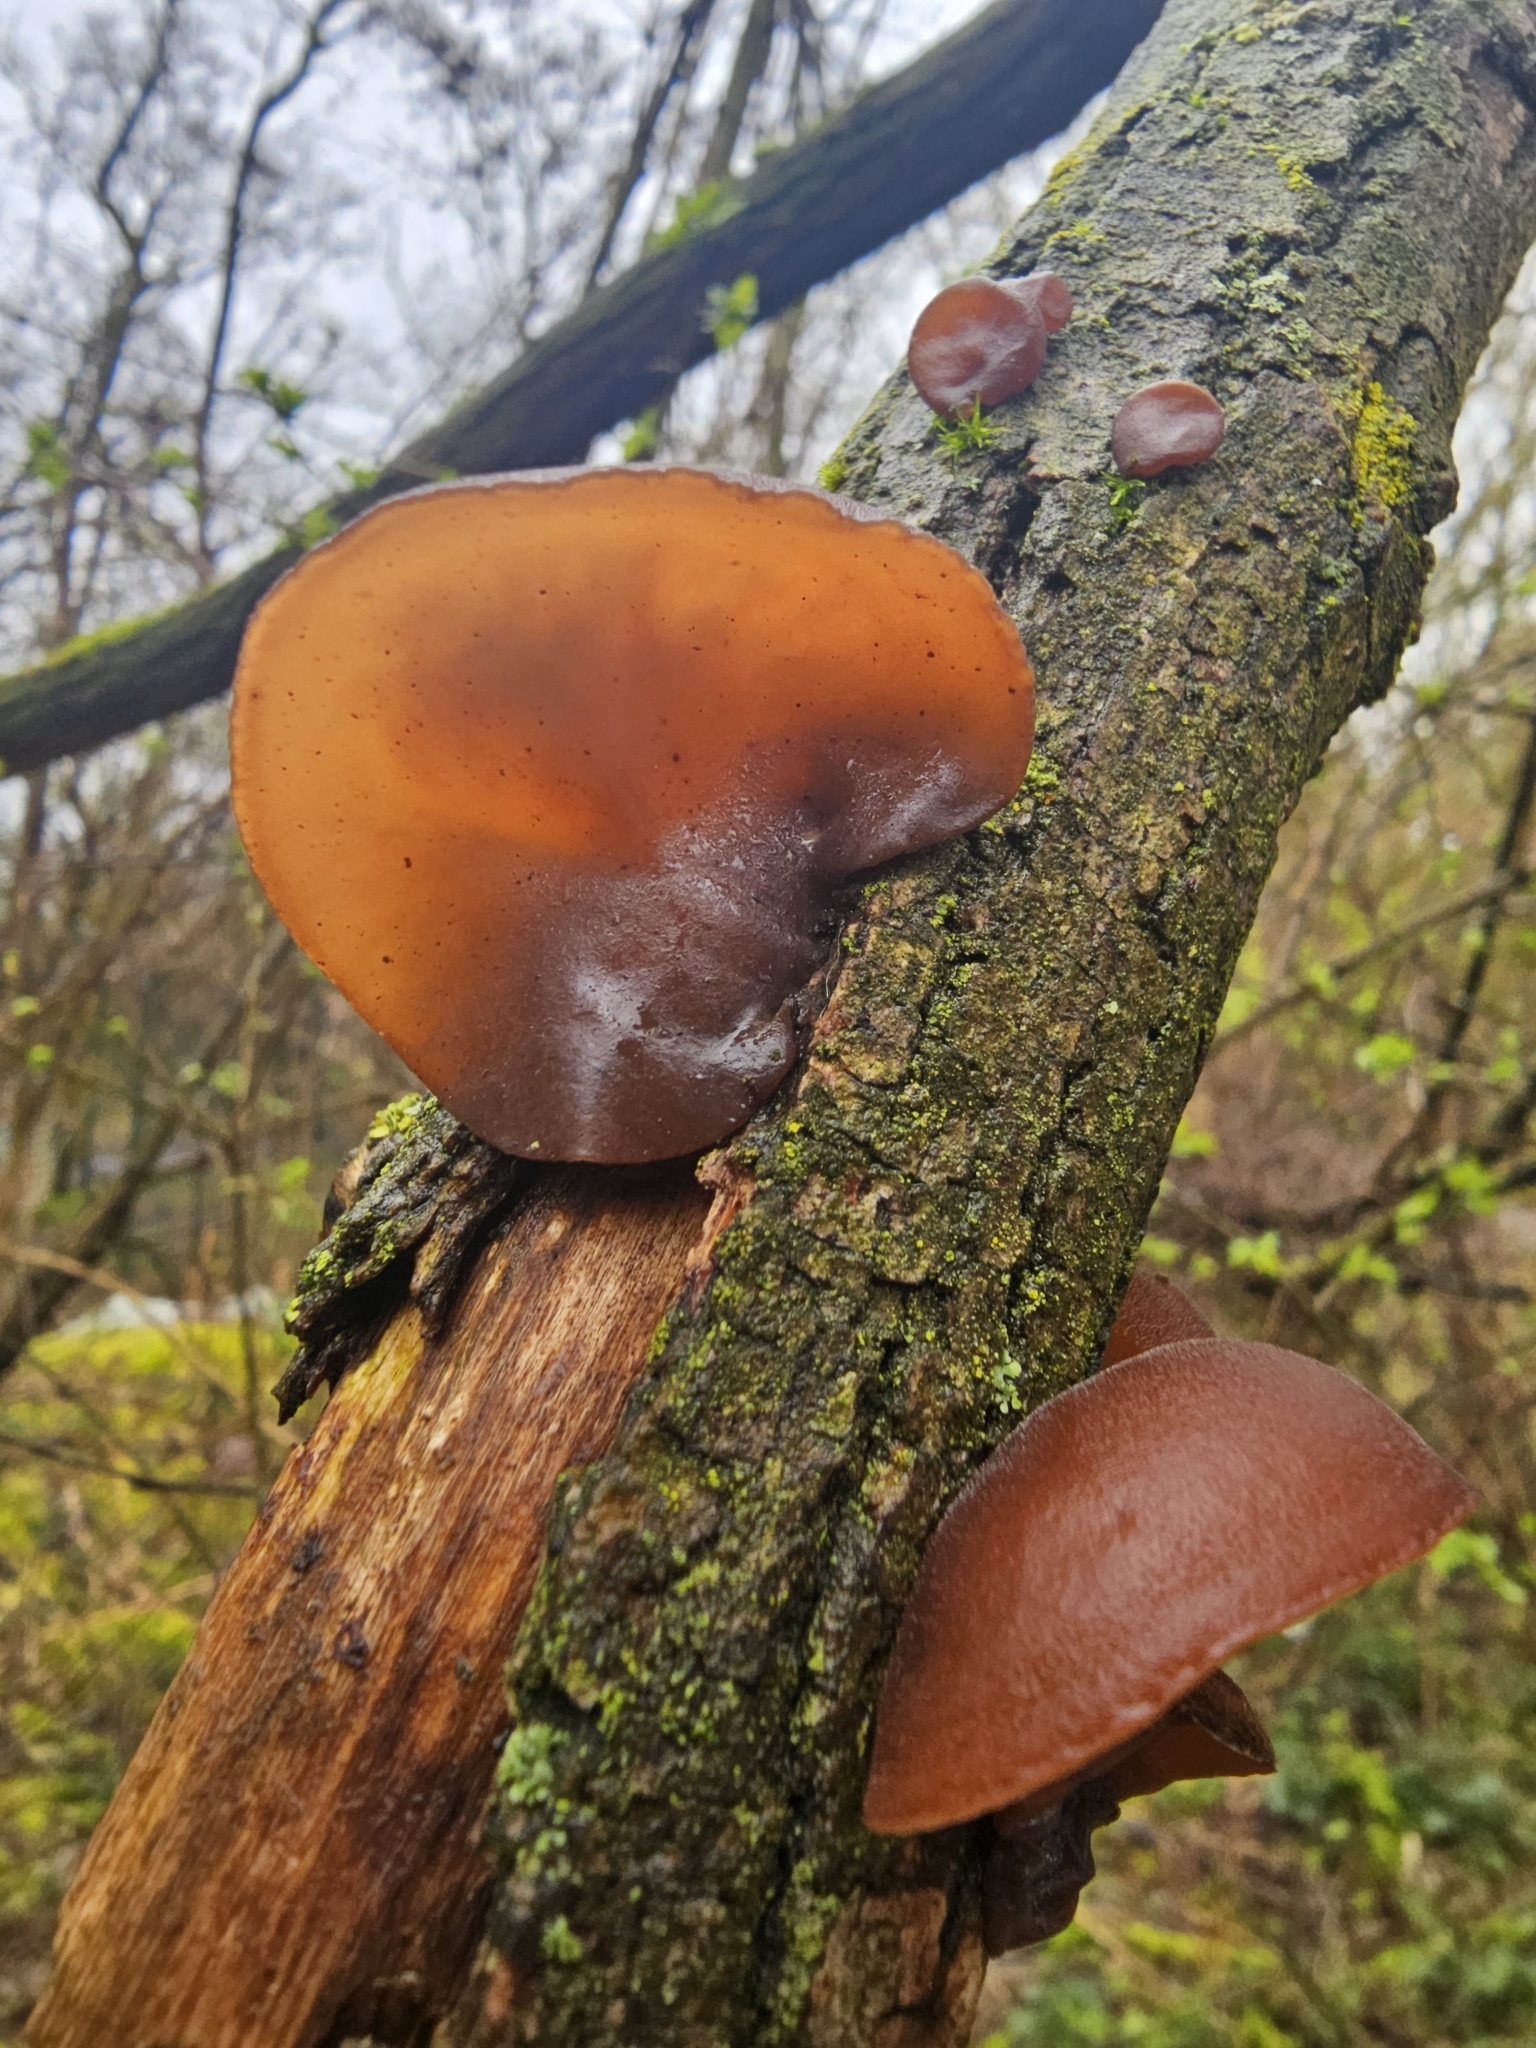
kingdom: Fungi
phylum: Basidiomycota
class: Agaricomycetes
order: Auriculariales
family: Auriculariaceae
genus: Auricularia
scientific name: Auricularia auricula-judae
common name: Jelly ear
